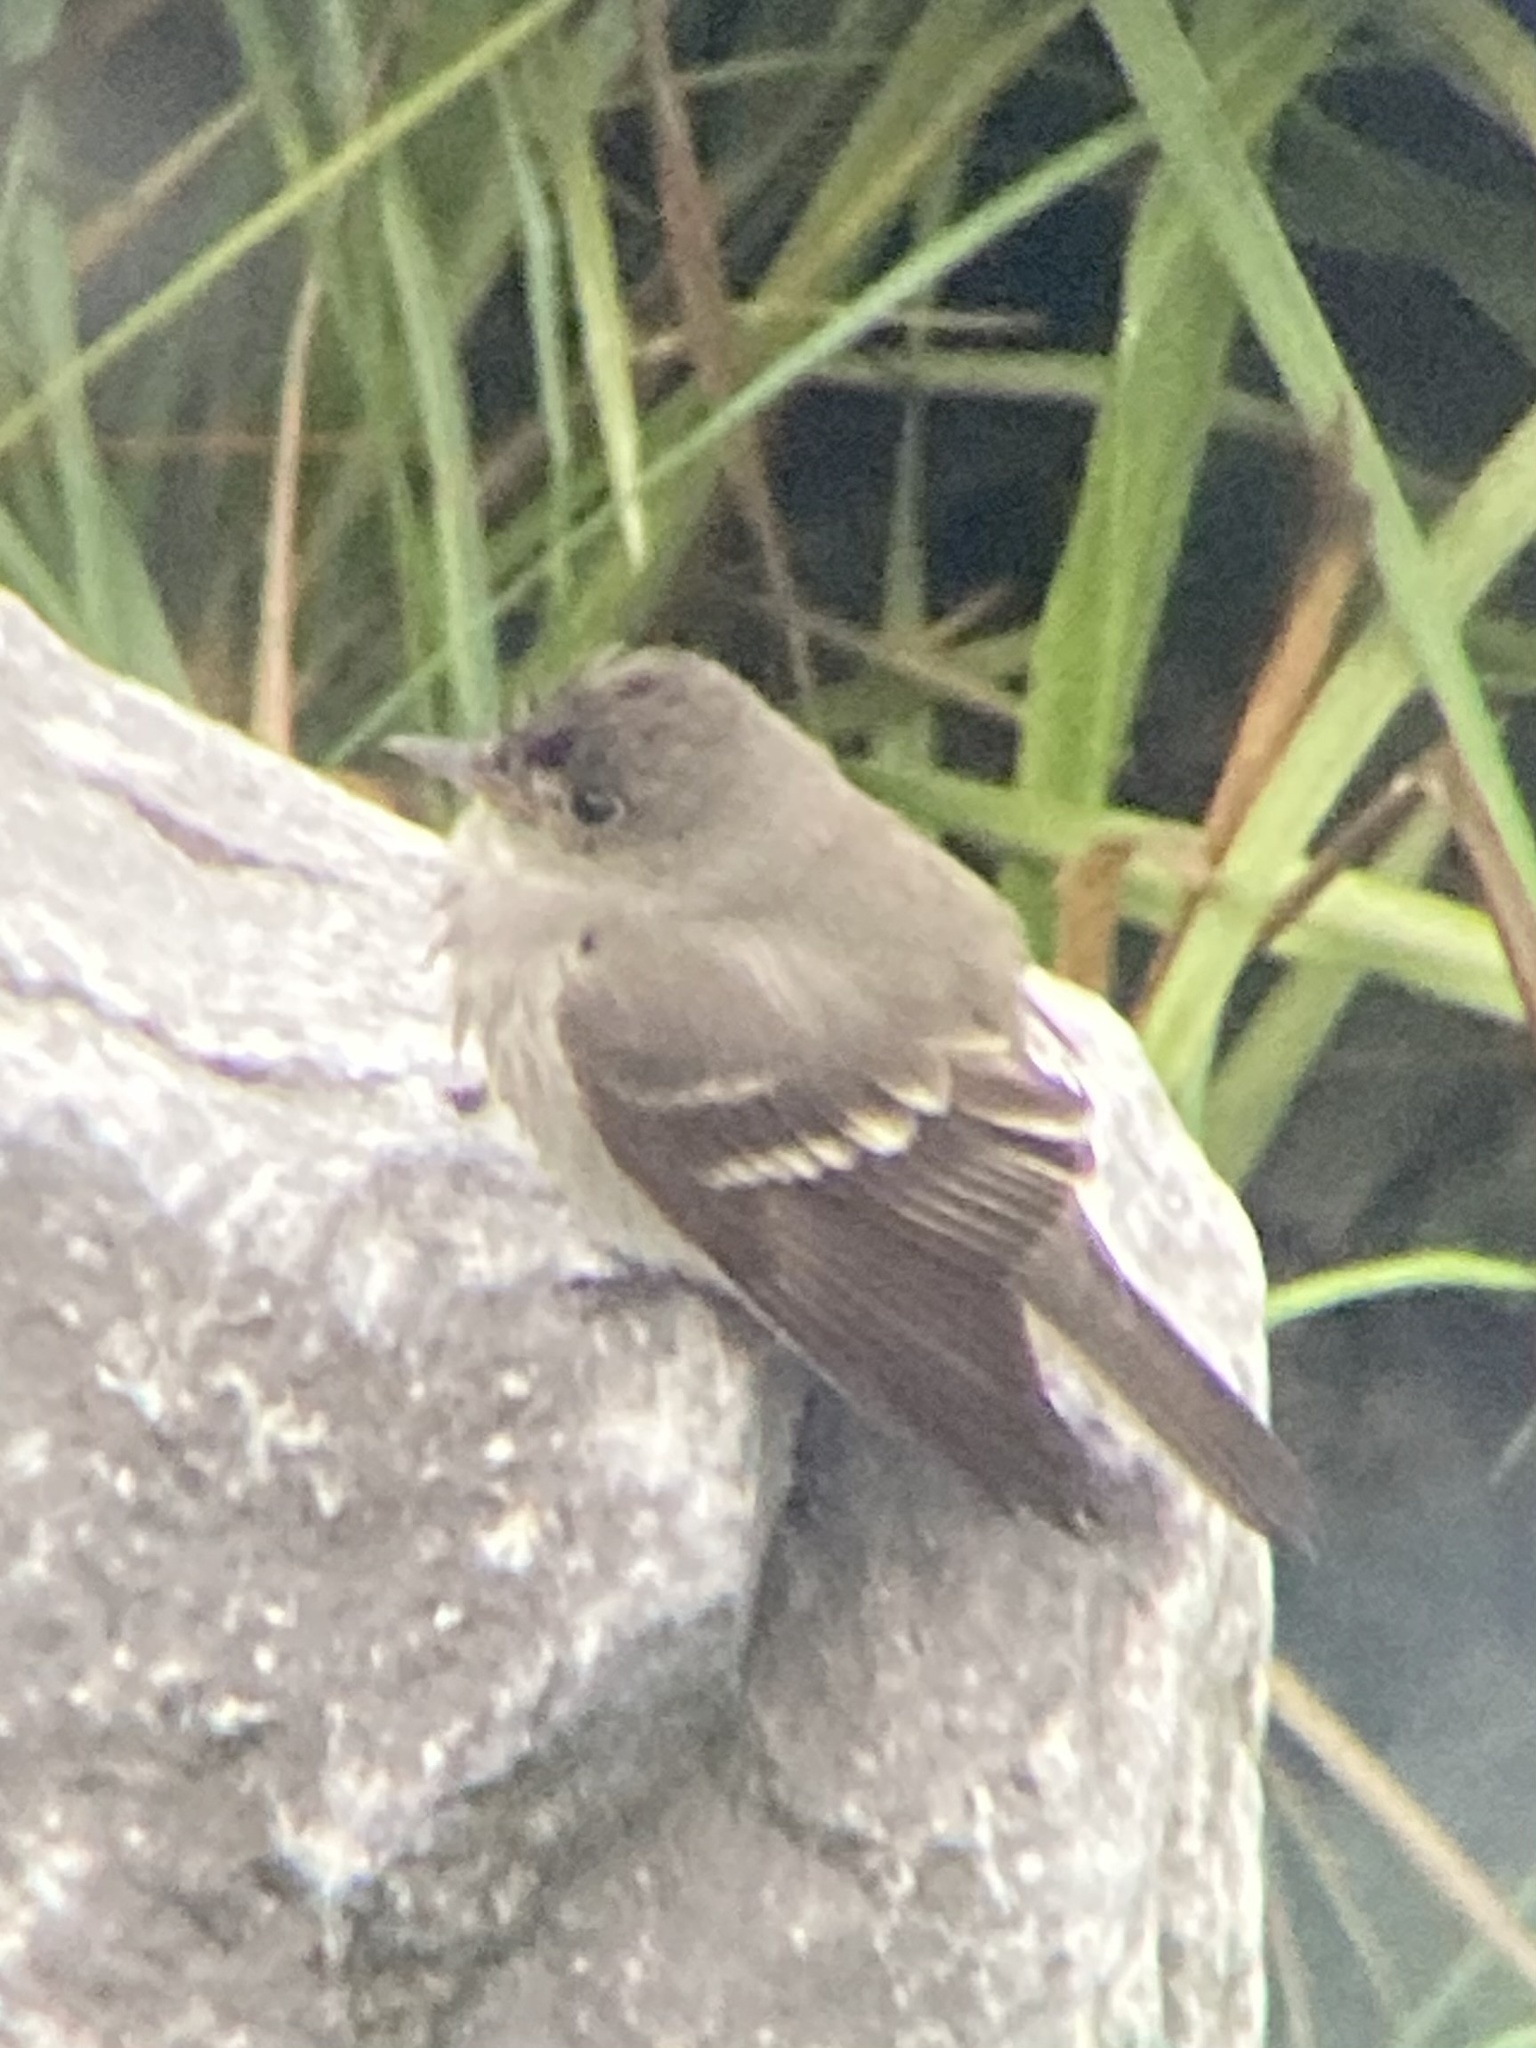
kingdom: Animalia
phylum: Chordata
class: Aves
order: Passeriformes
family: Tyrannidae
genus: Contopus
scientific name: Contopus virens
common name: Eastern wood-pewee
